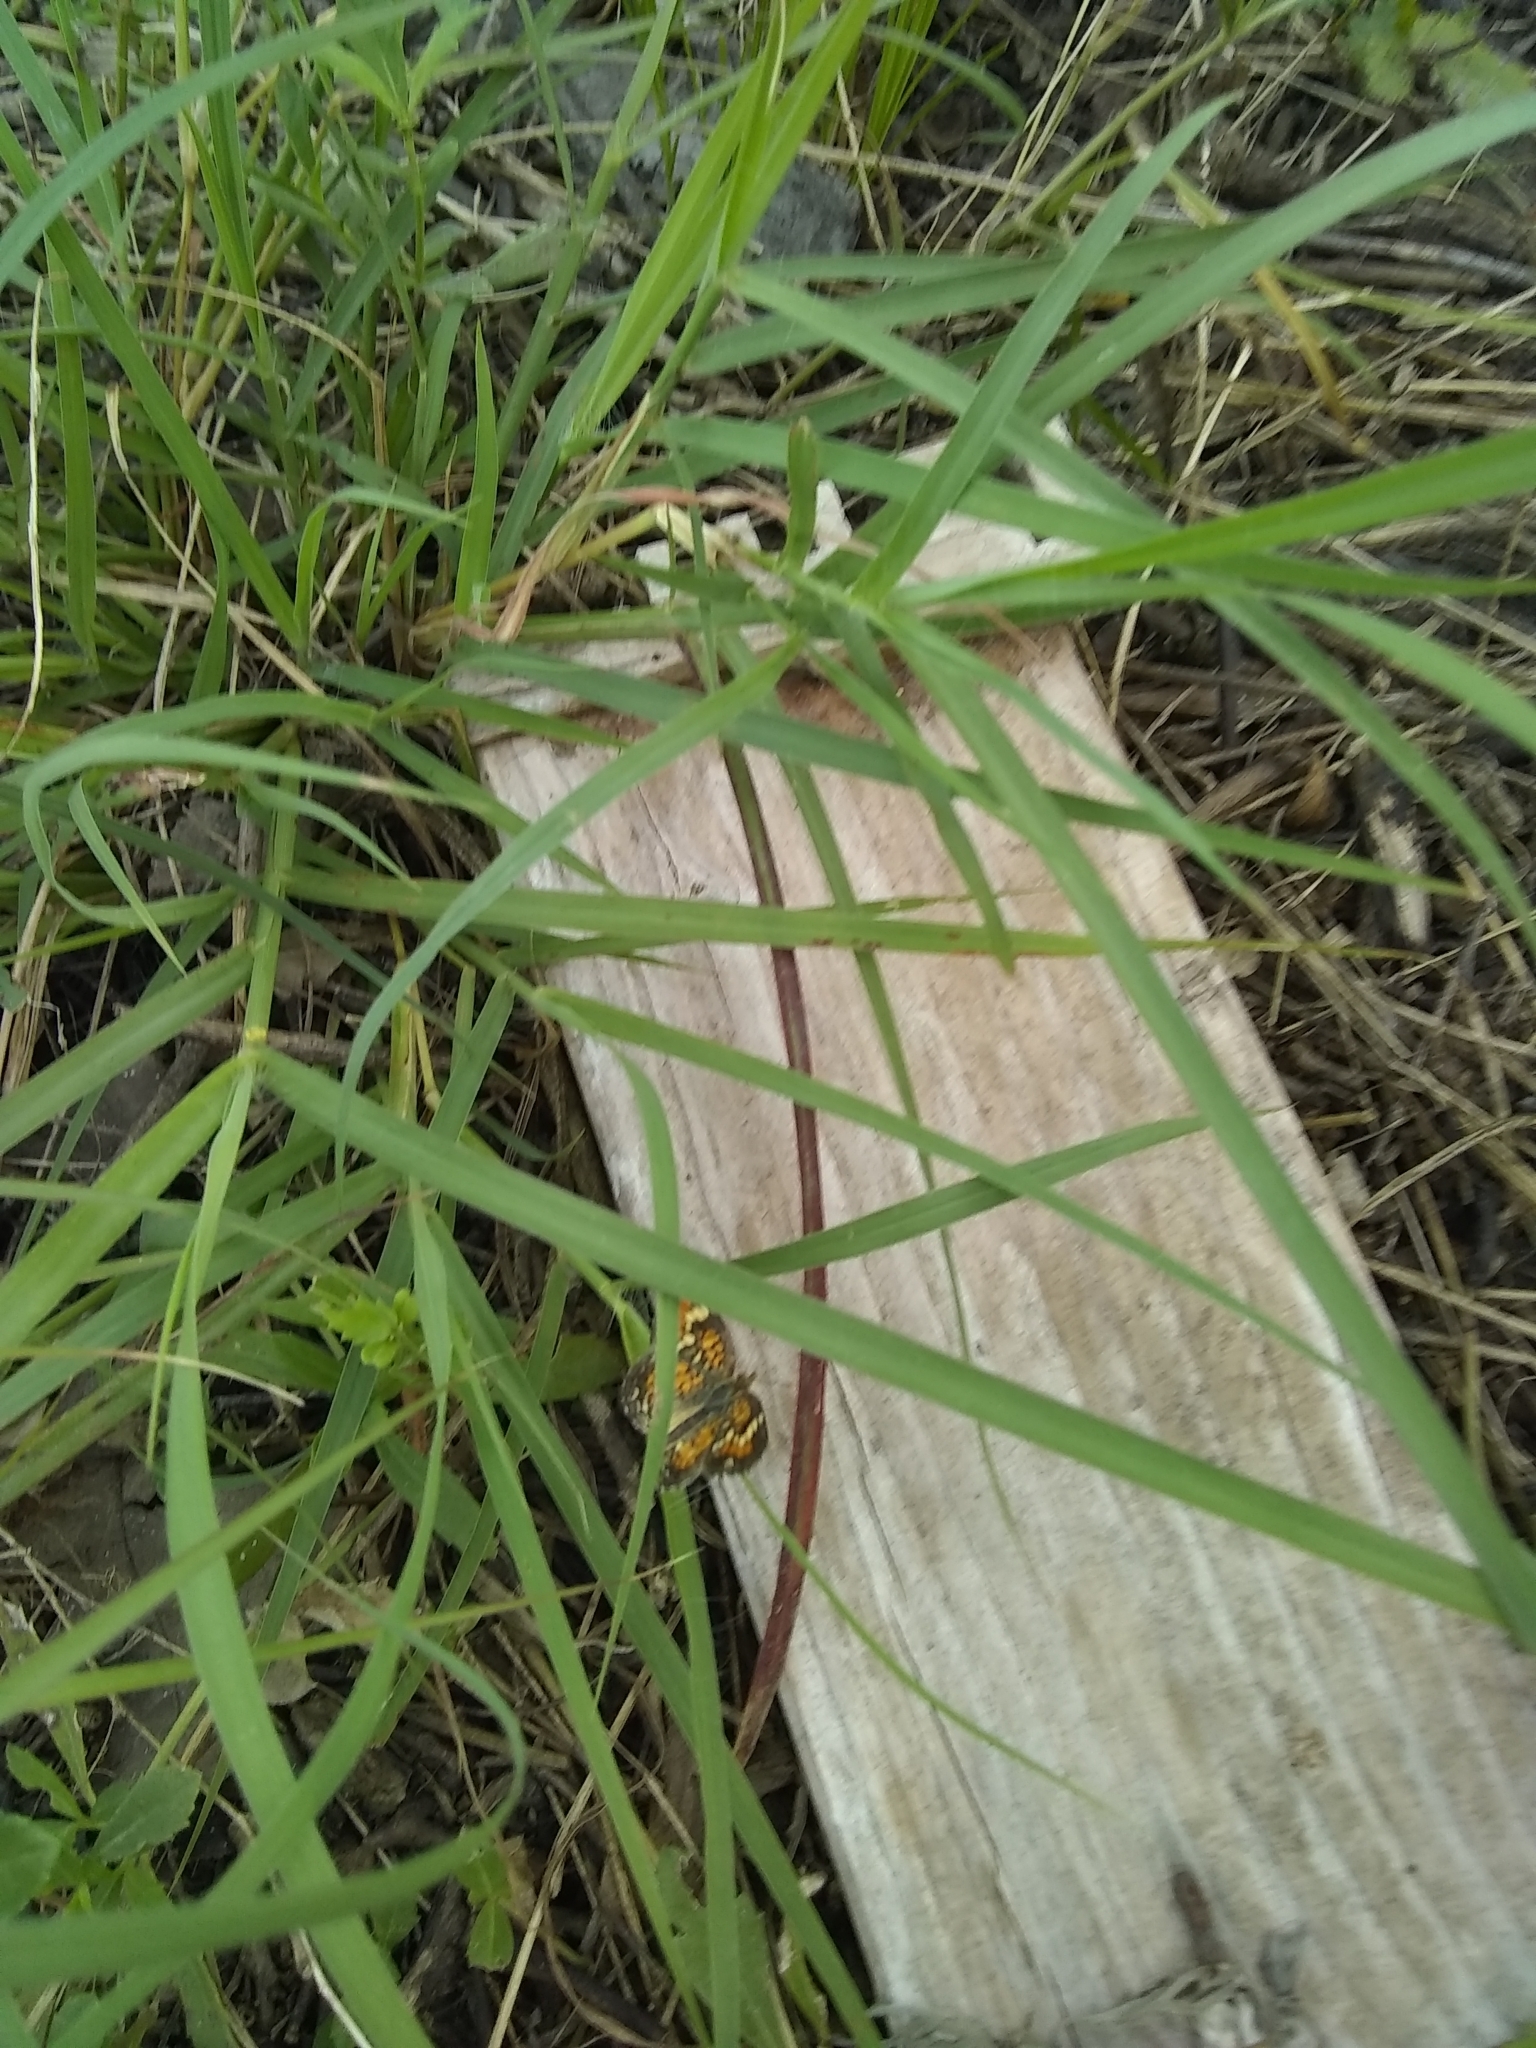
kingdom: Animalia
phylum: Arthropoda
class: Insecta
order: Lepidoptera
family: Nymphalidae
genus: Phyciodes
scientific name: Phyciodes phaon
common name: Phaon crescent
